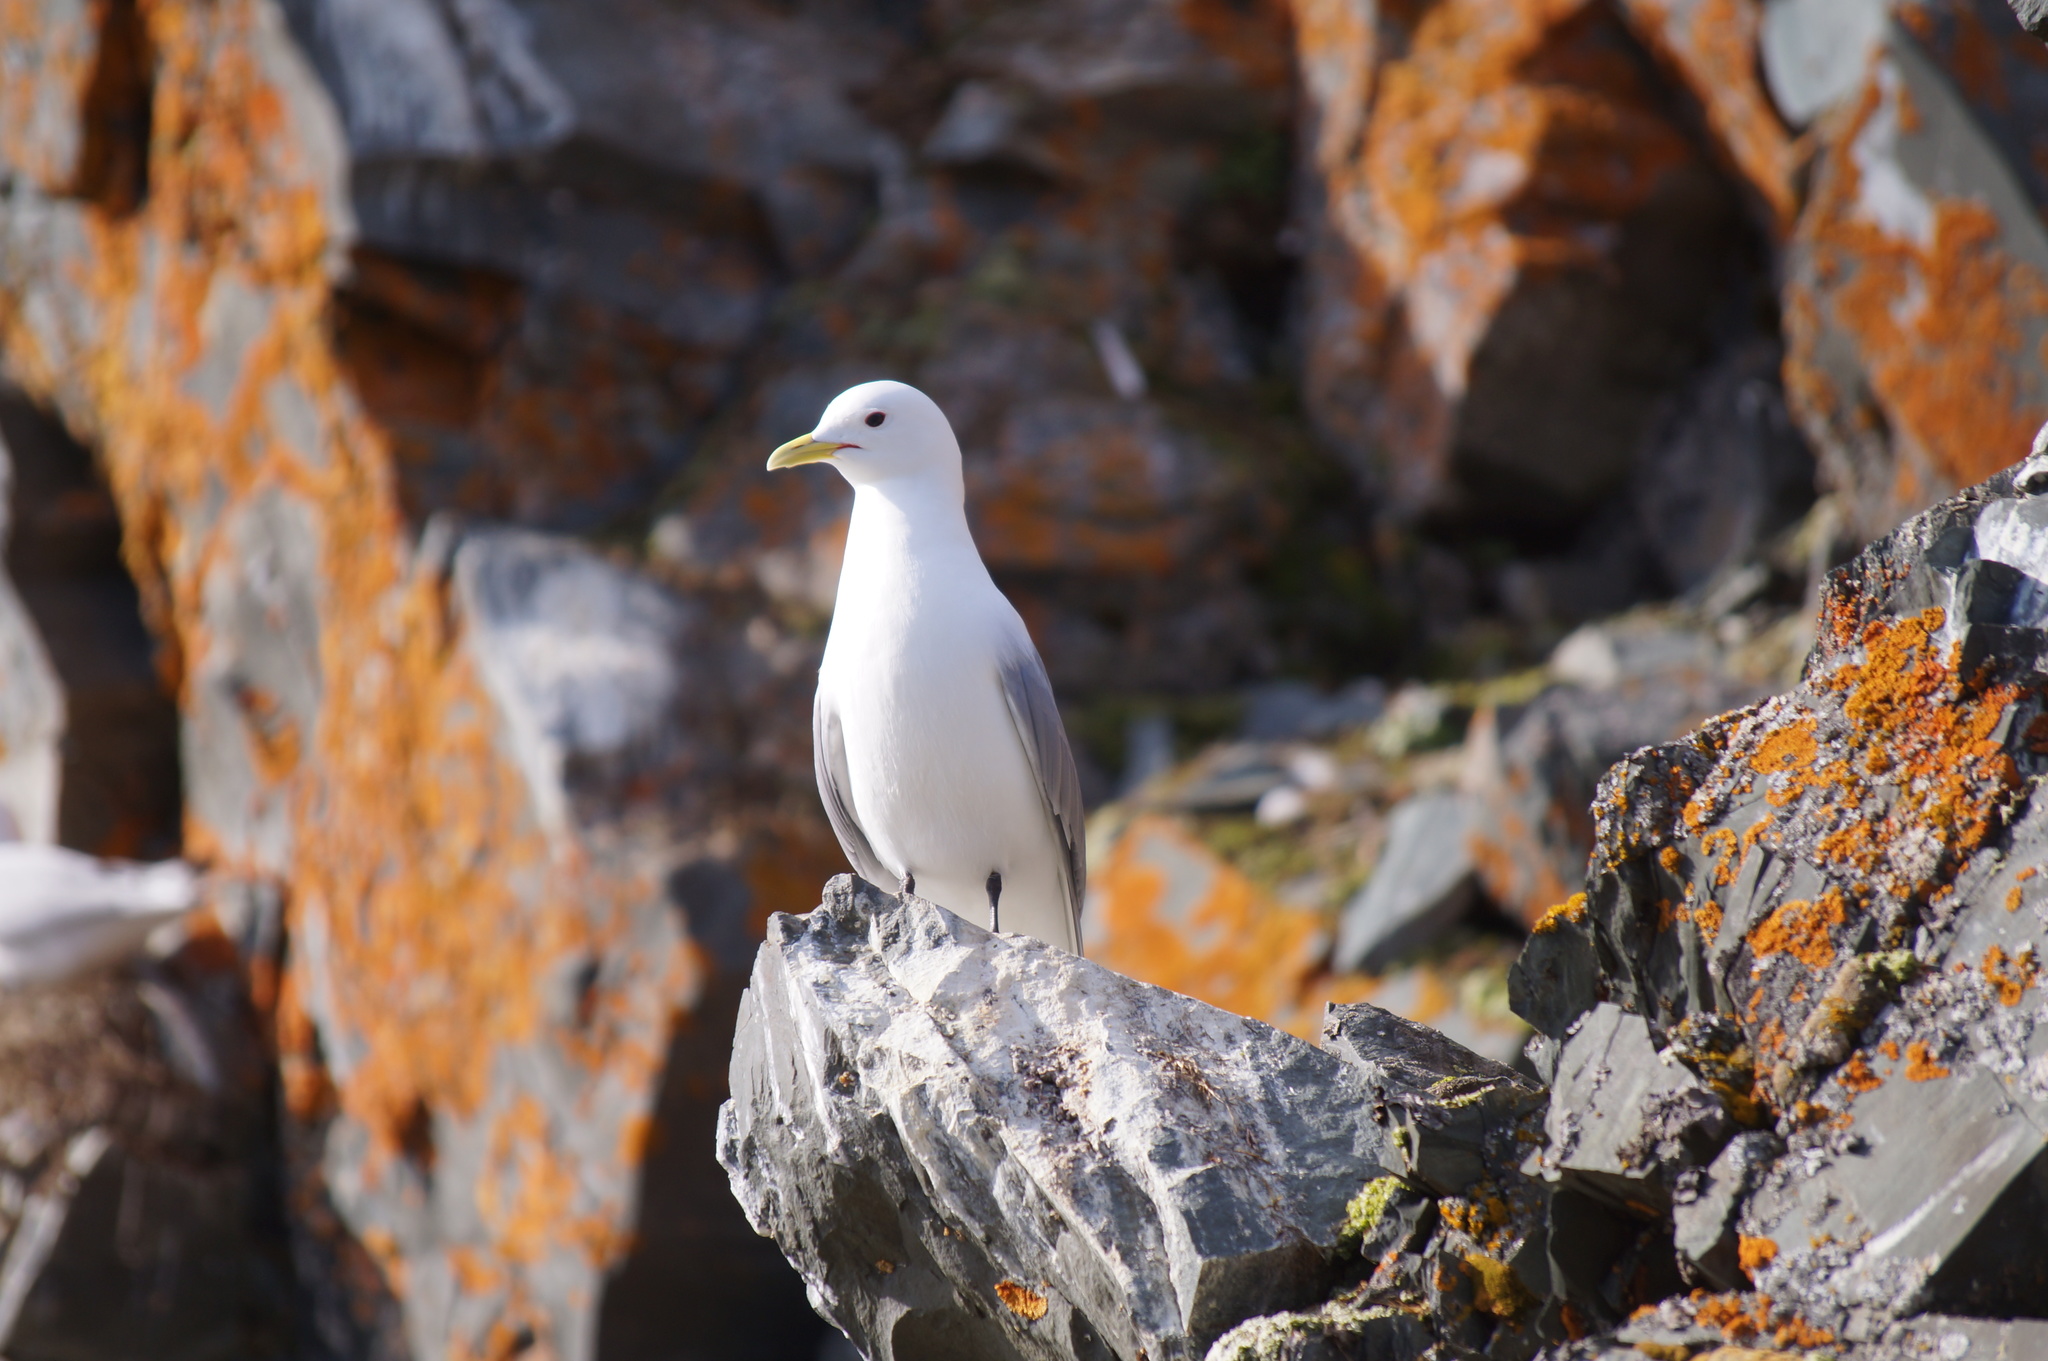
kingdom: Animalia
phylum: Chordata
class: Aves
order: Charadriiformes
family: Laridae
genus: Rissa
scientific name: Rissa tridactyla
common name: Black-legged kittiwake
